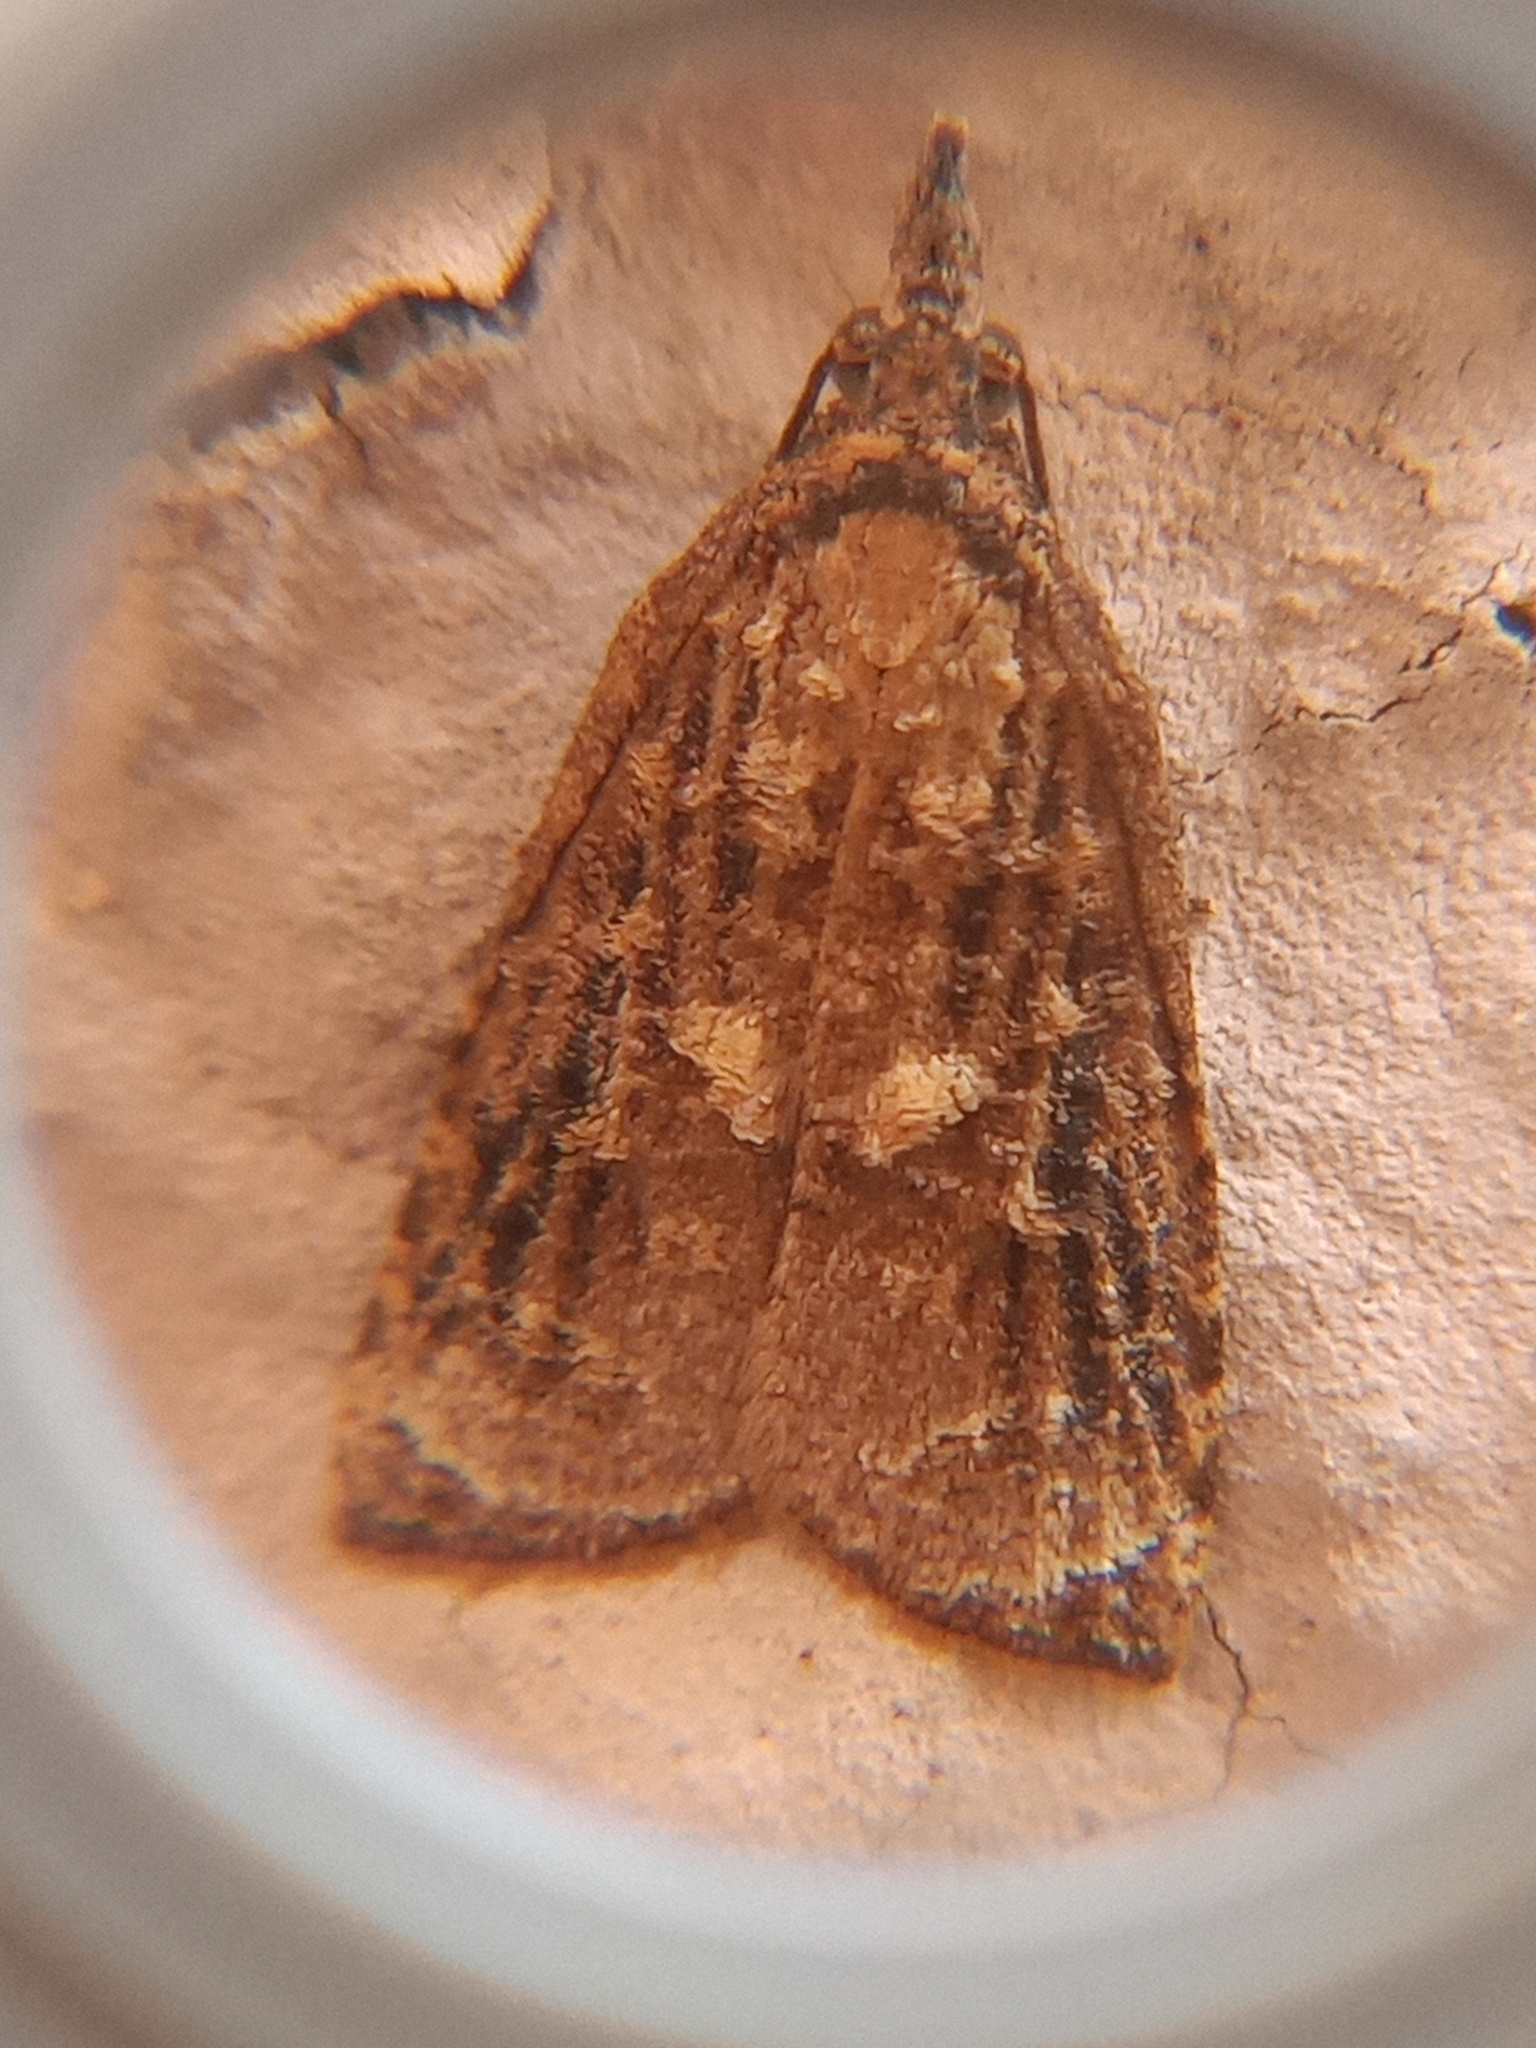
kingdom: Animalia
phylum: Arthropoda
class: Insecta
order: Lepidoptera
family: Tortricidae
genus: Platynota
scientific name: Platynota rostrana
